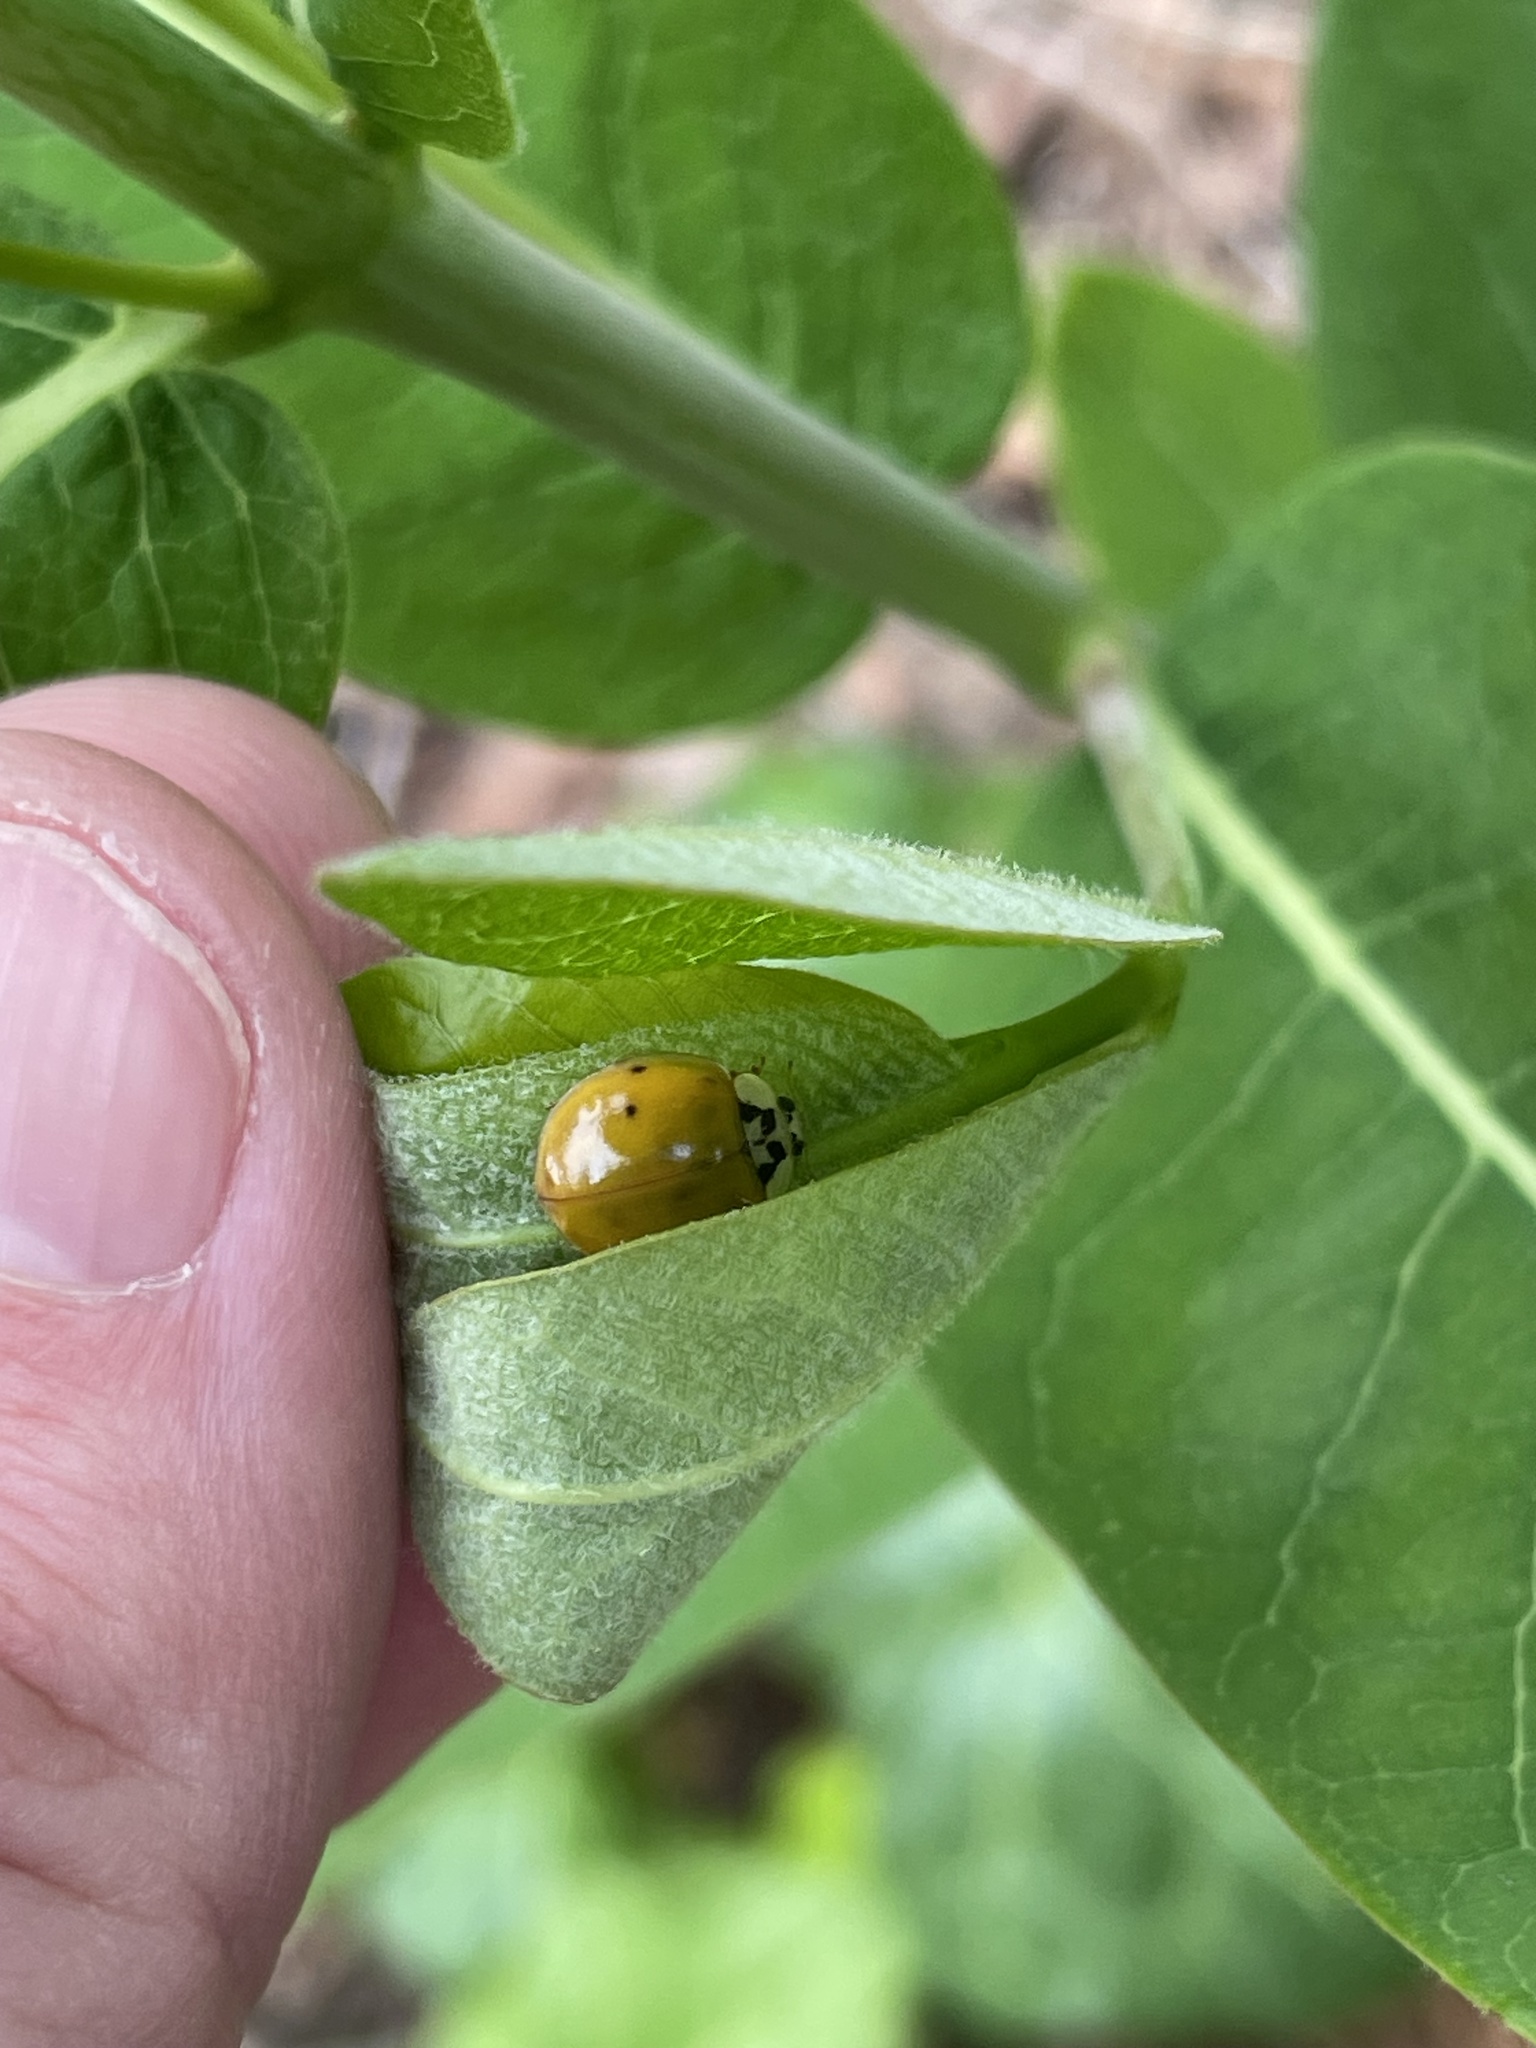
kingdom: Animalia
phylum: Arthropoda
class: Insecta
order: Coleoptera
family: Coccinellidae
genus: Harmonia
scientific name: Harmonia axyridis
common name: Harlequin ladybird
